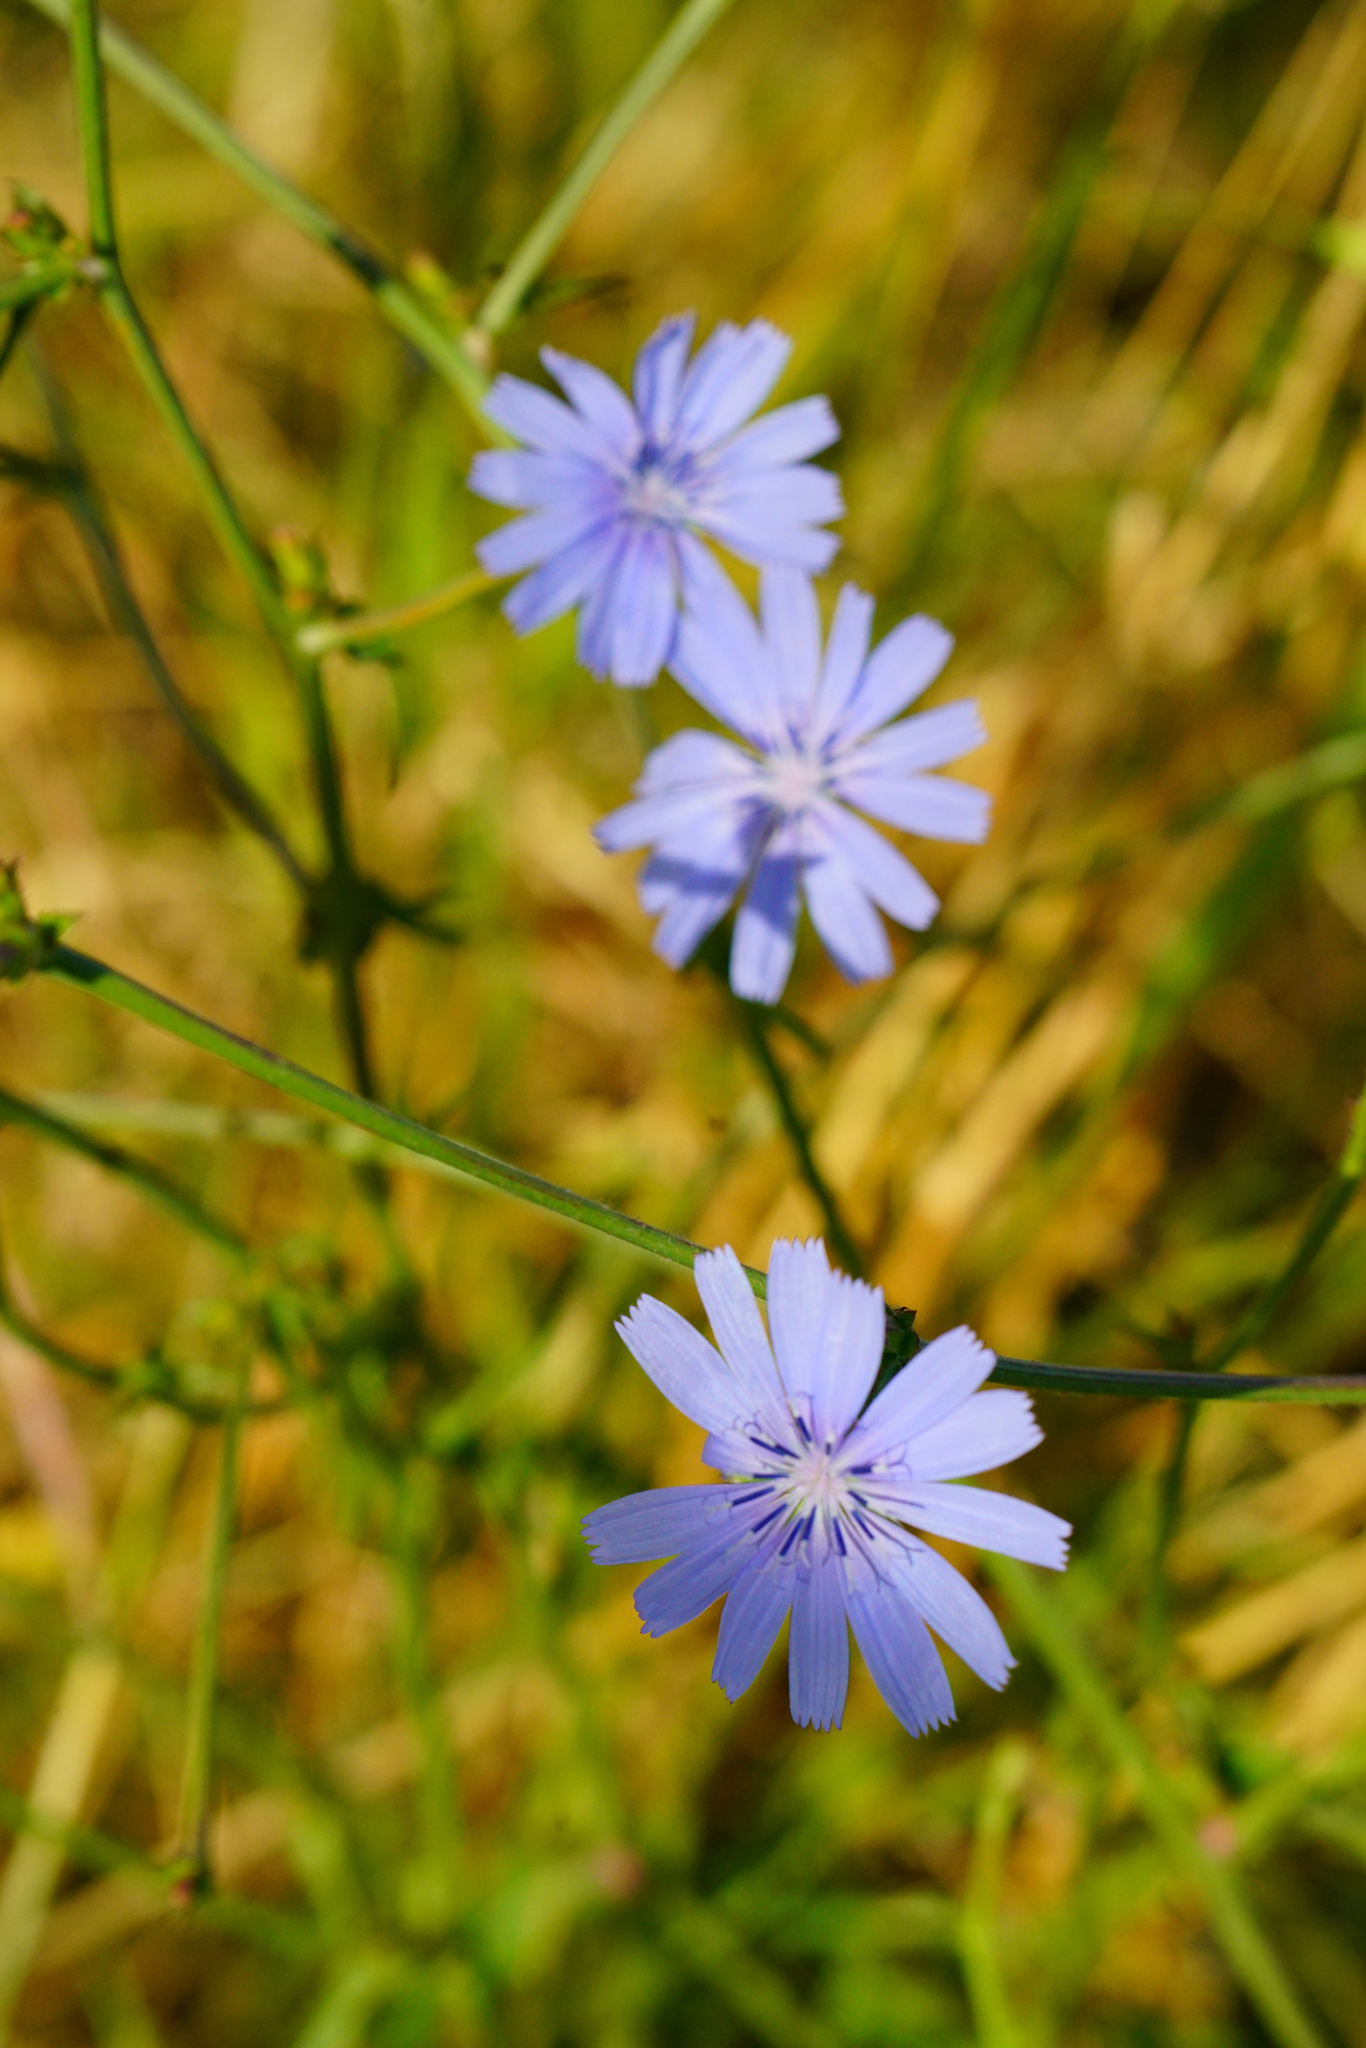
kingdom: Plantae
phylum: Tracheophyta
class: Magnoliopsida
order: Asterales
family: Asteraceae
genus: Cichorium
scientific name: Cichorium intybus
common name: Chicory
